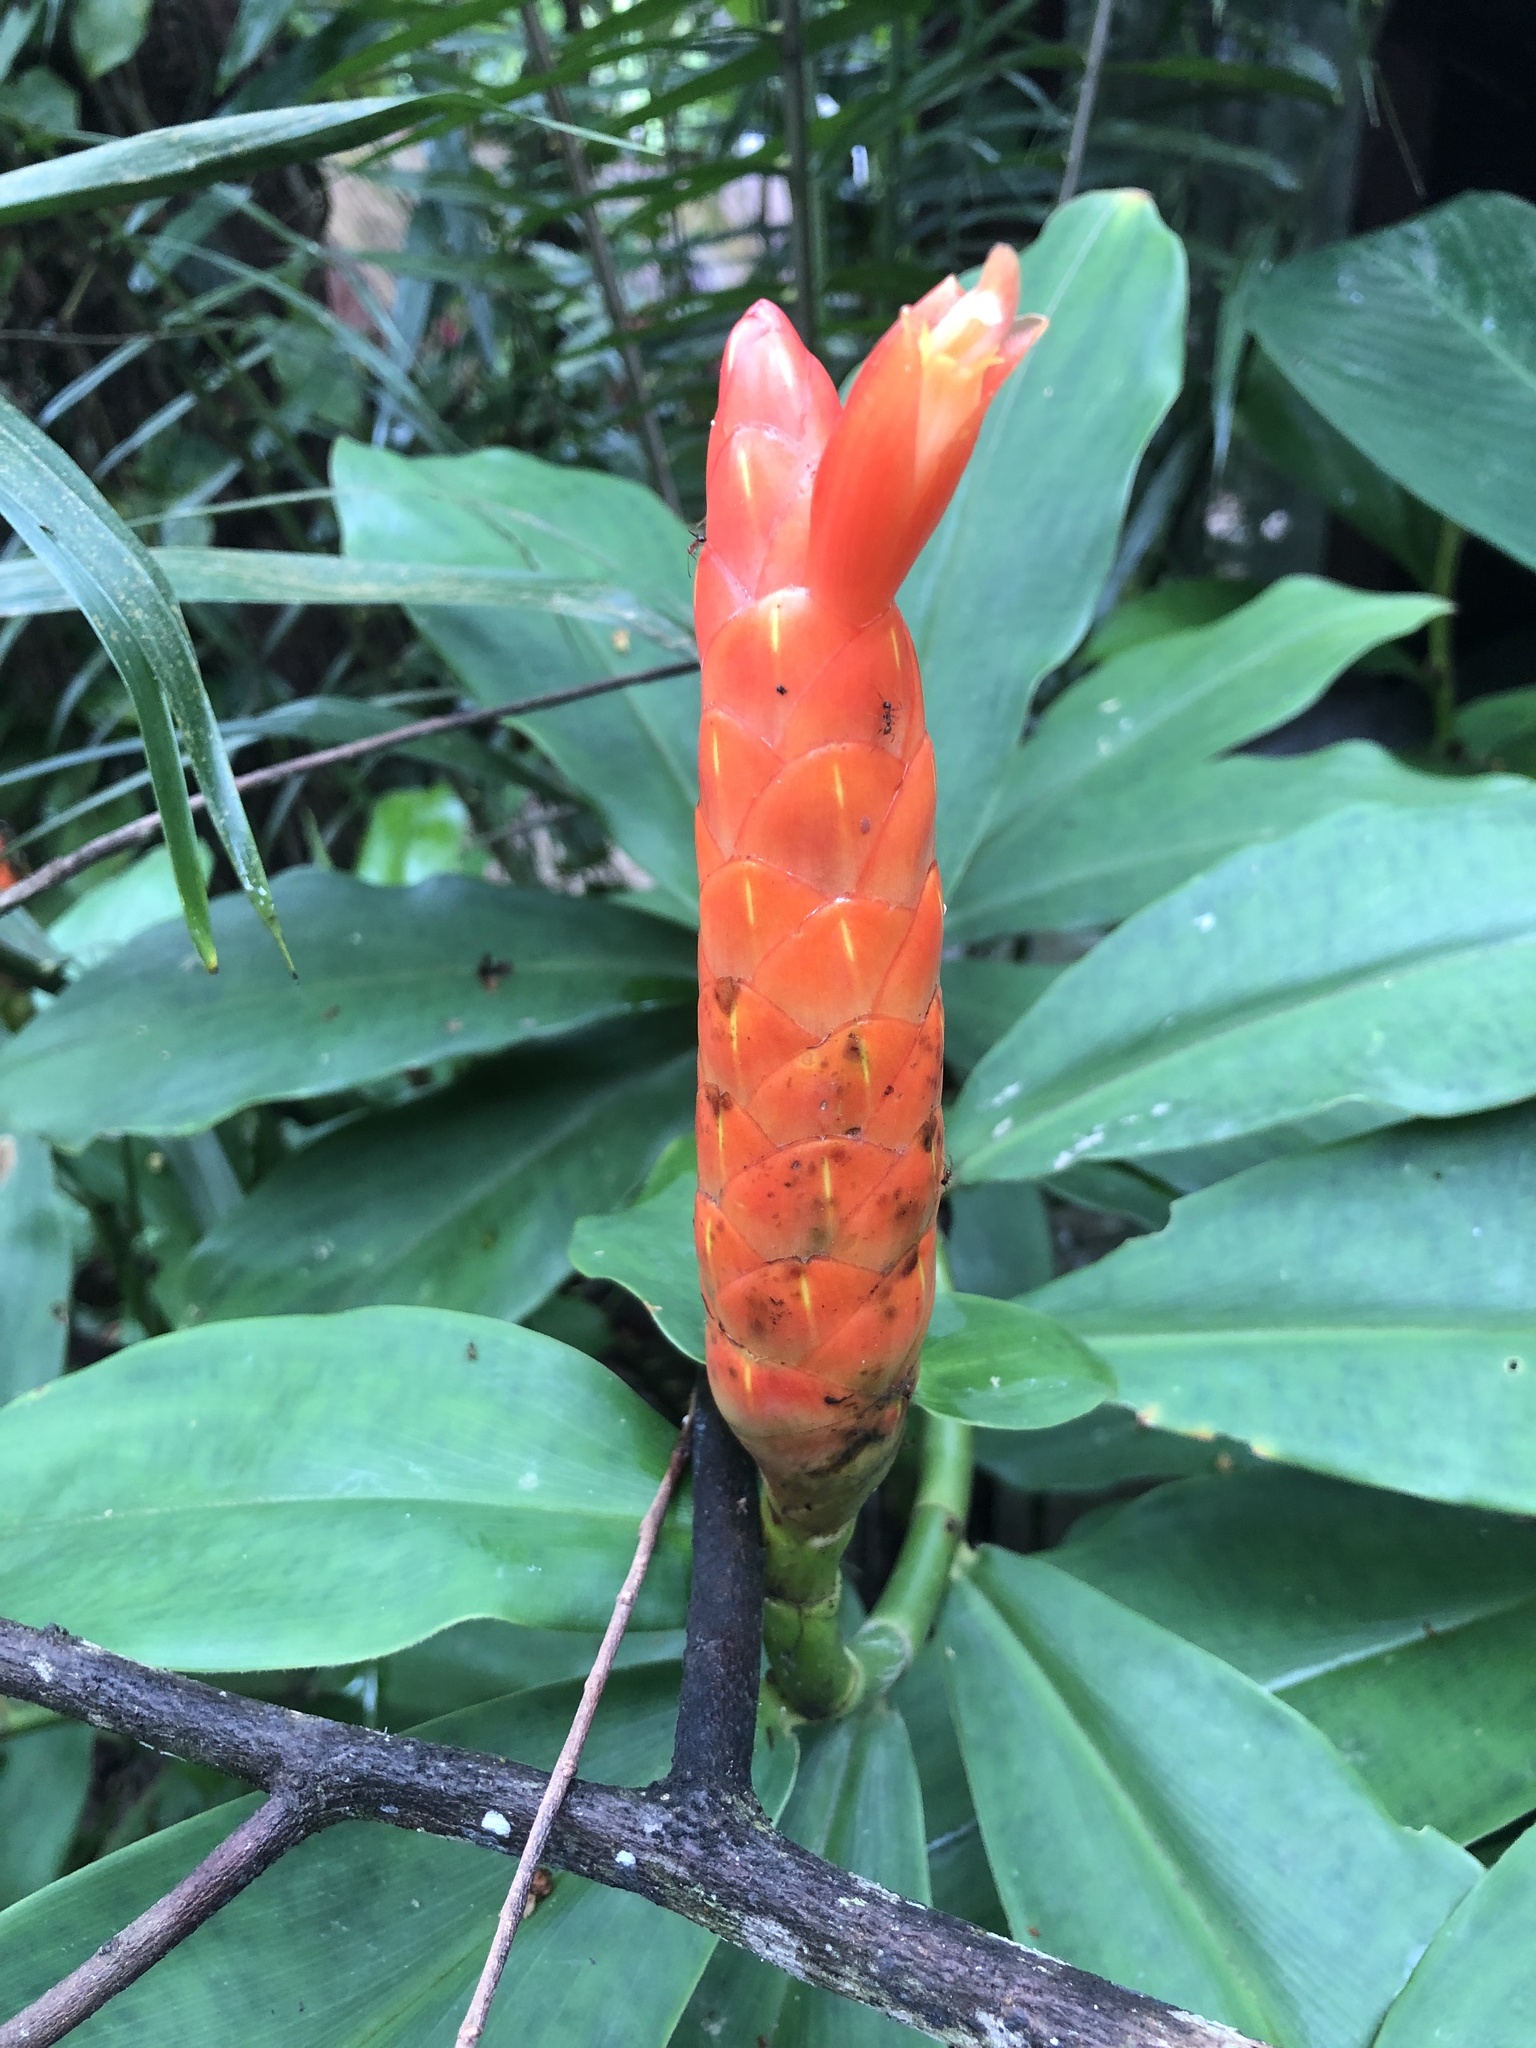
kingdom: Plantae
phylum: Tracheophyta
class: Liliopsida
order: Zingiberales
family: Costaceae
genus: Costus
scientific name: Costus pulverulentus
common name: Spiral ginger
